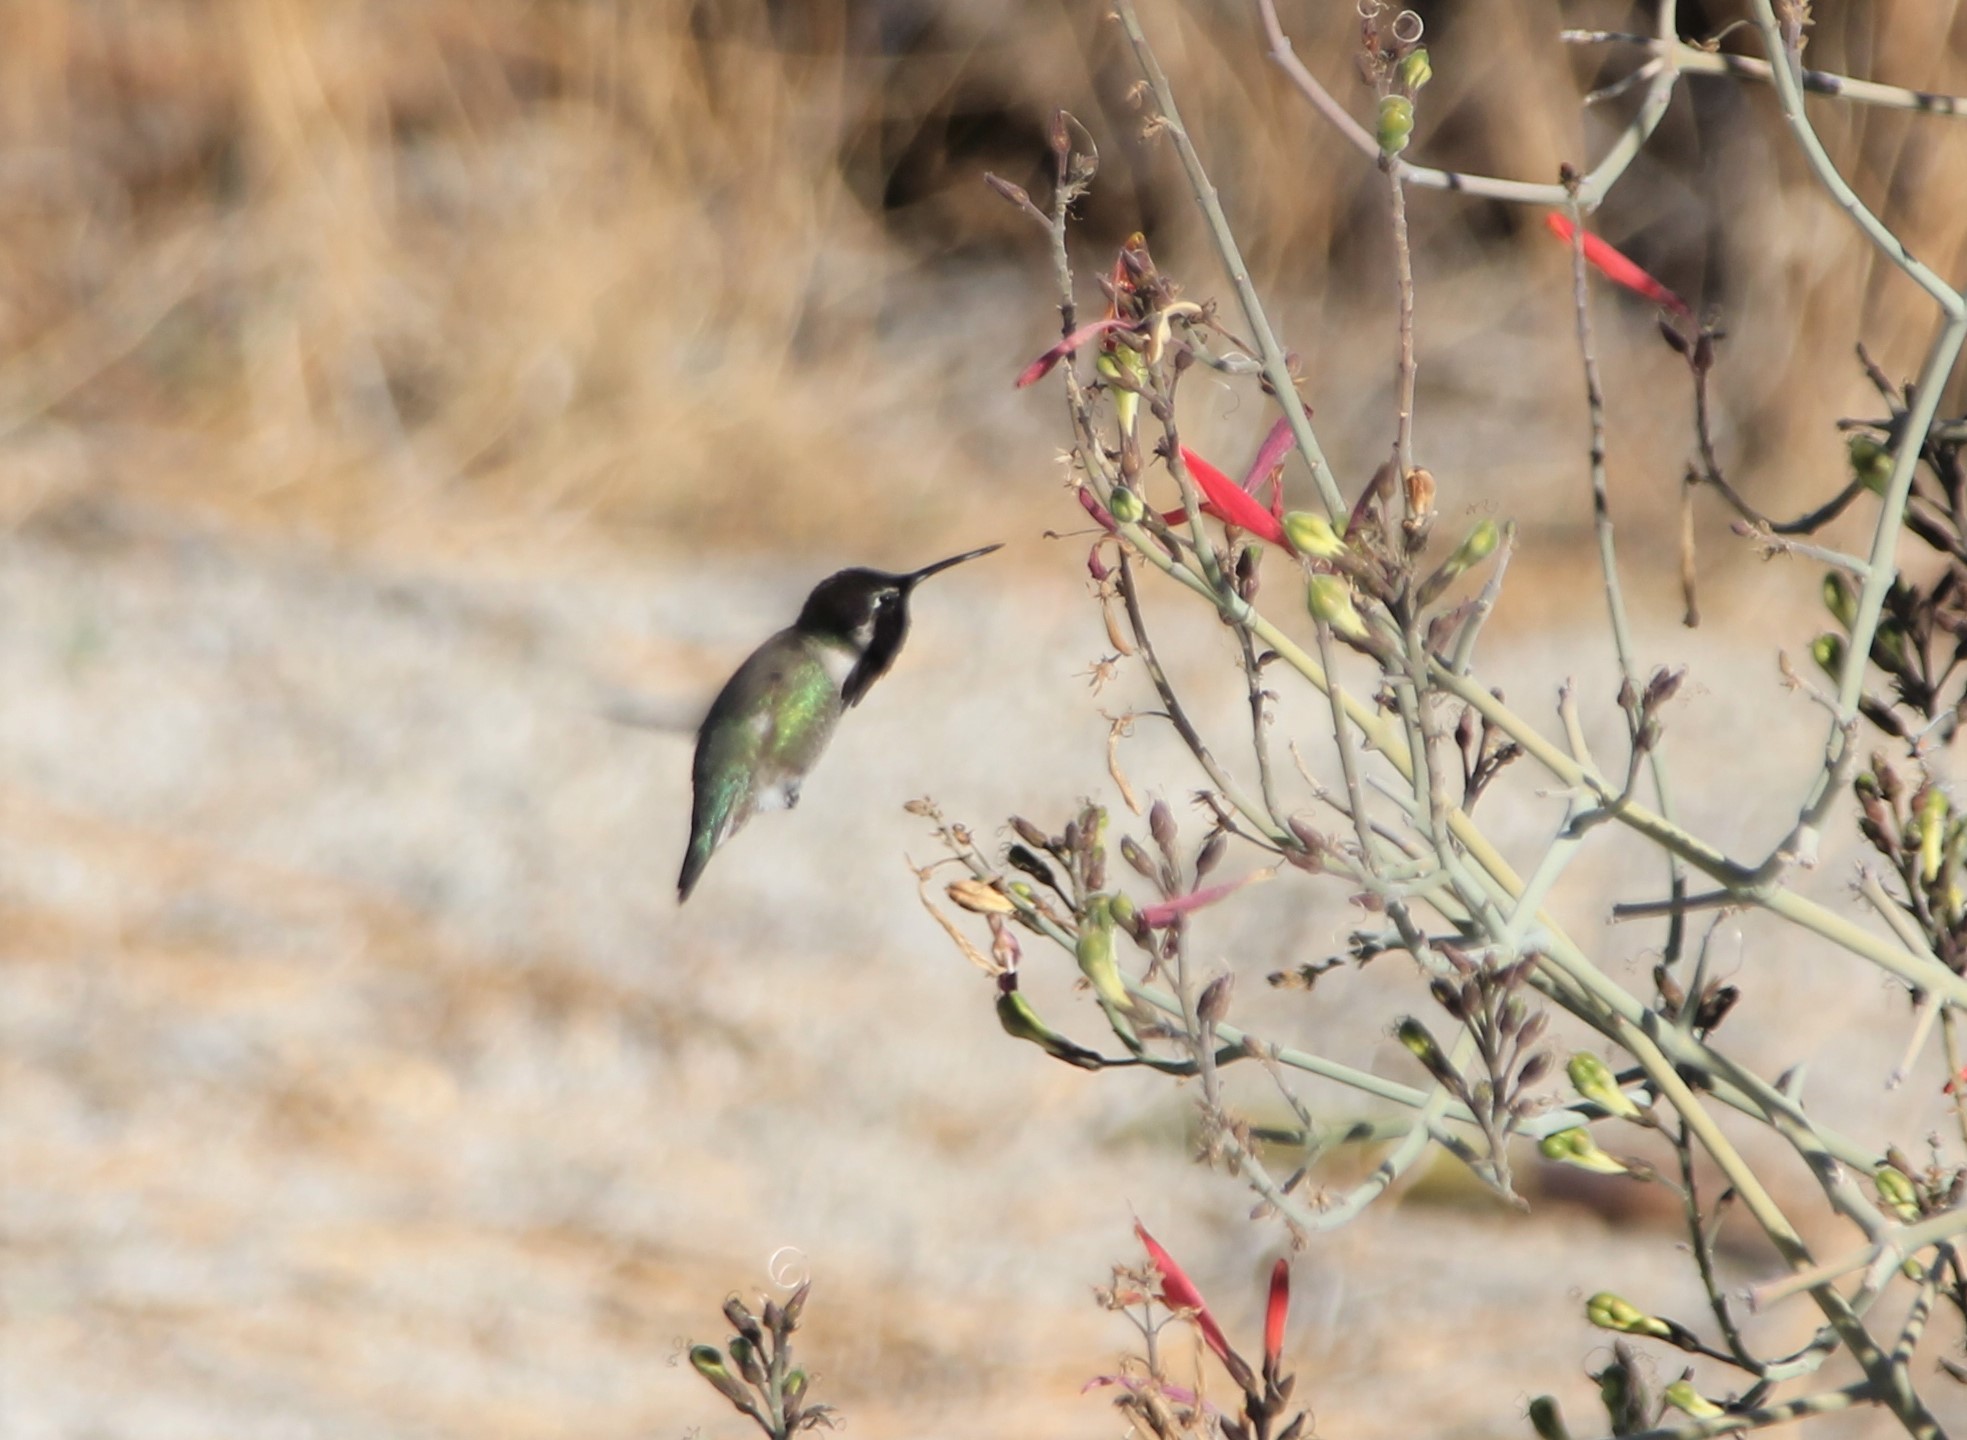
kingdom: Animalia
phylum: Chordata
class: Aves
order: Apodiformes
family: Trochilidae
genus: Calypte
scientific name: Calypte costae
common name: Costa's hummingbird
